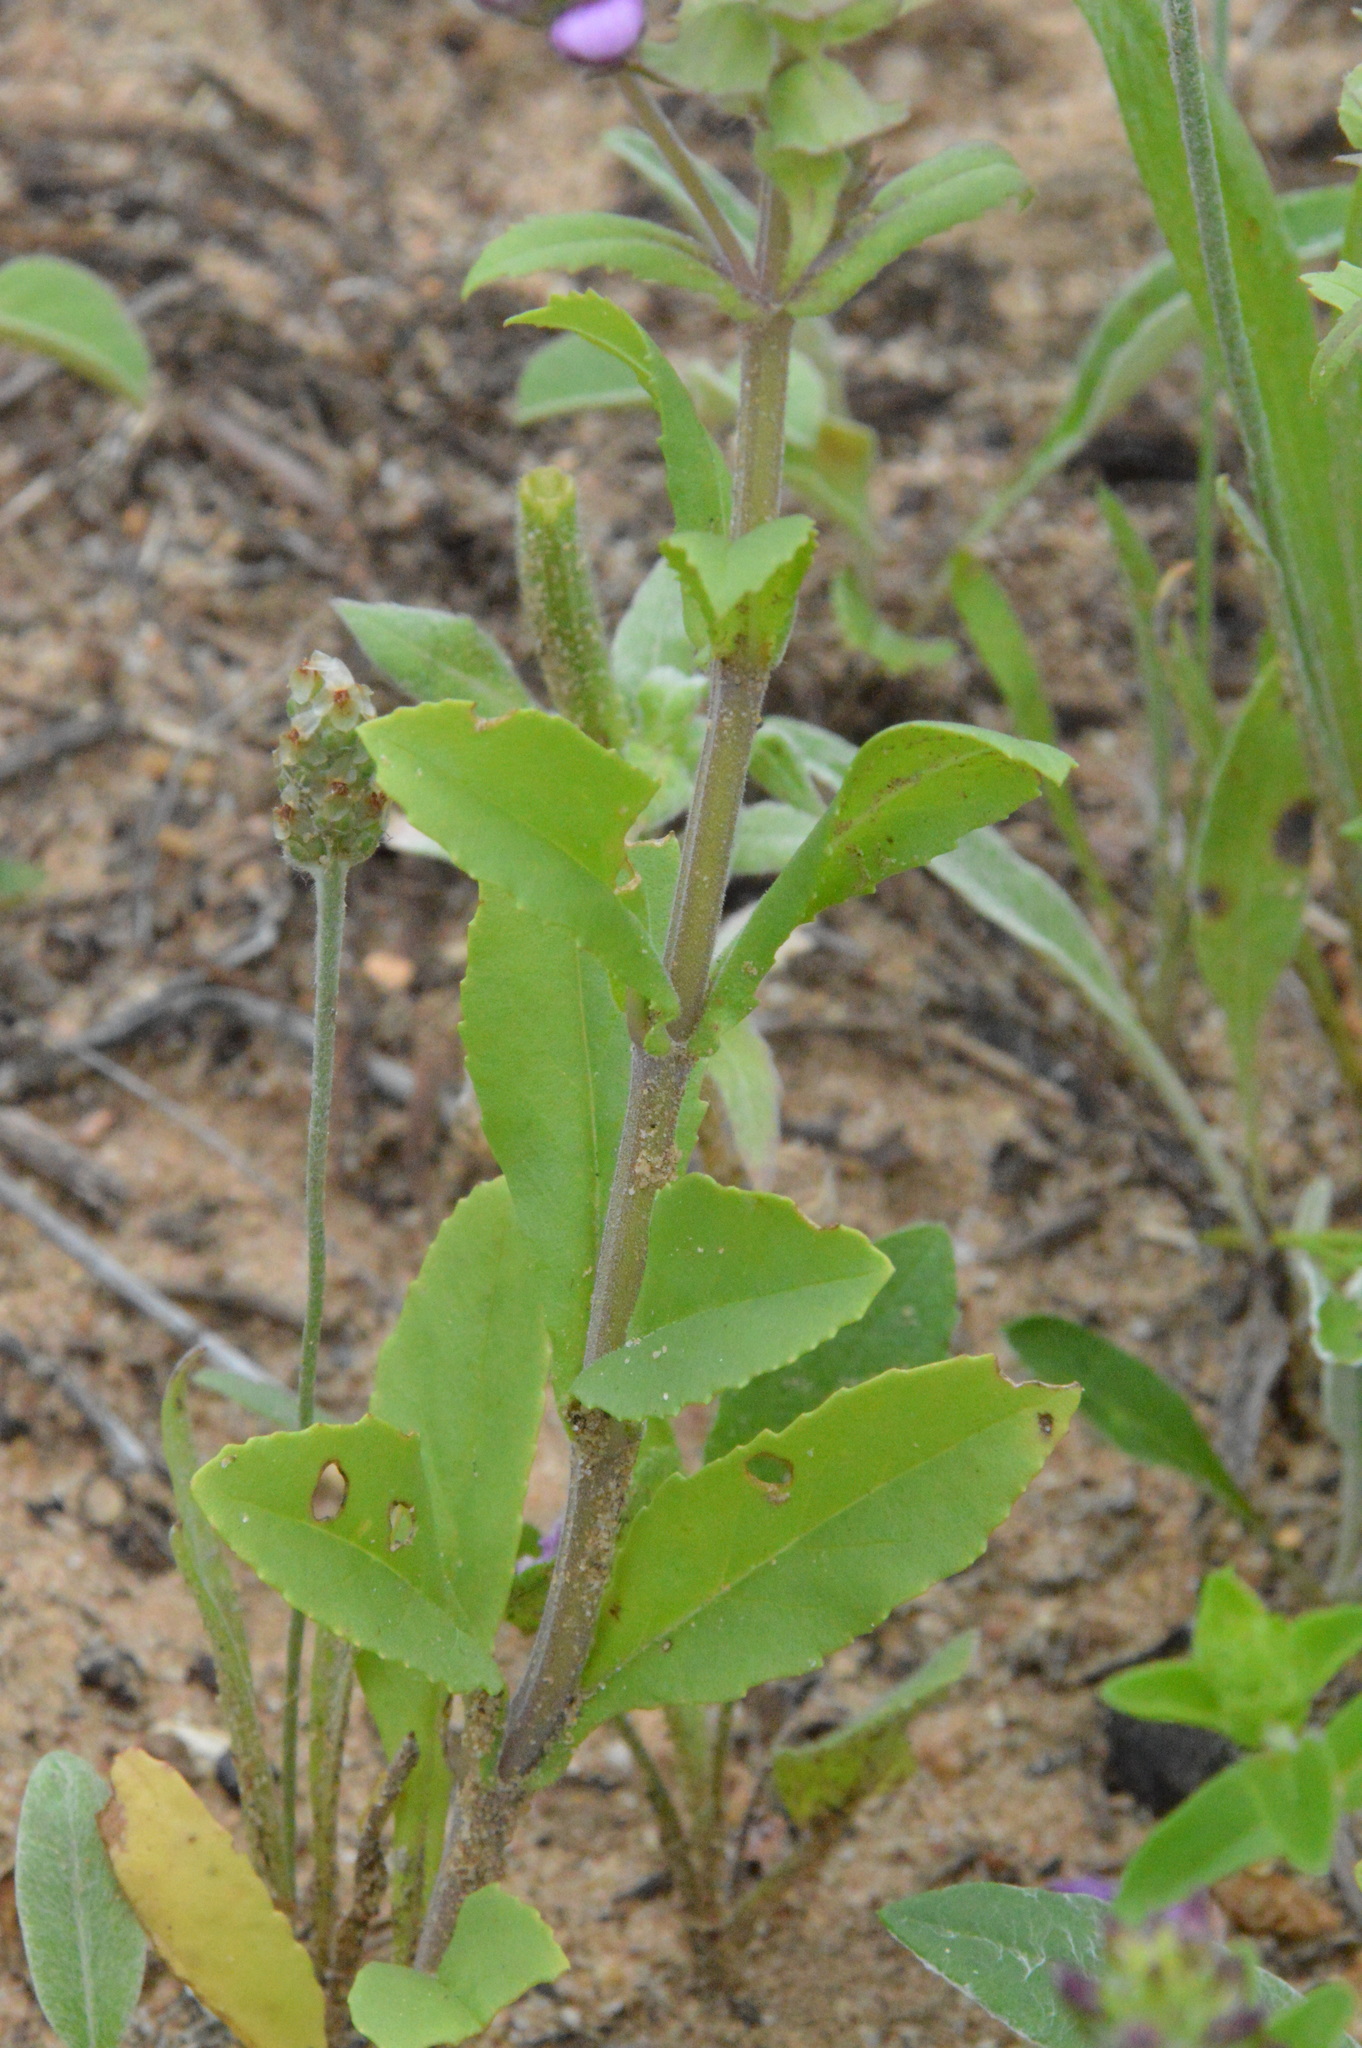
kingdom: Plantae
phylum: Tracheophyta
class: Magnoliopsida
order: Lamiales
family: Lamiaceae
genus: Brazoria
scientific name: Brazoria truncata
